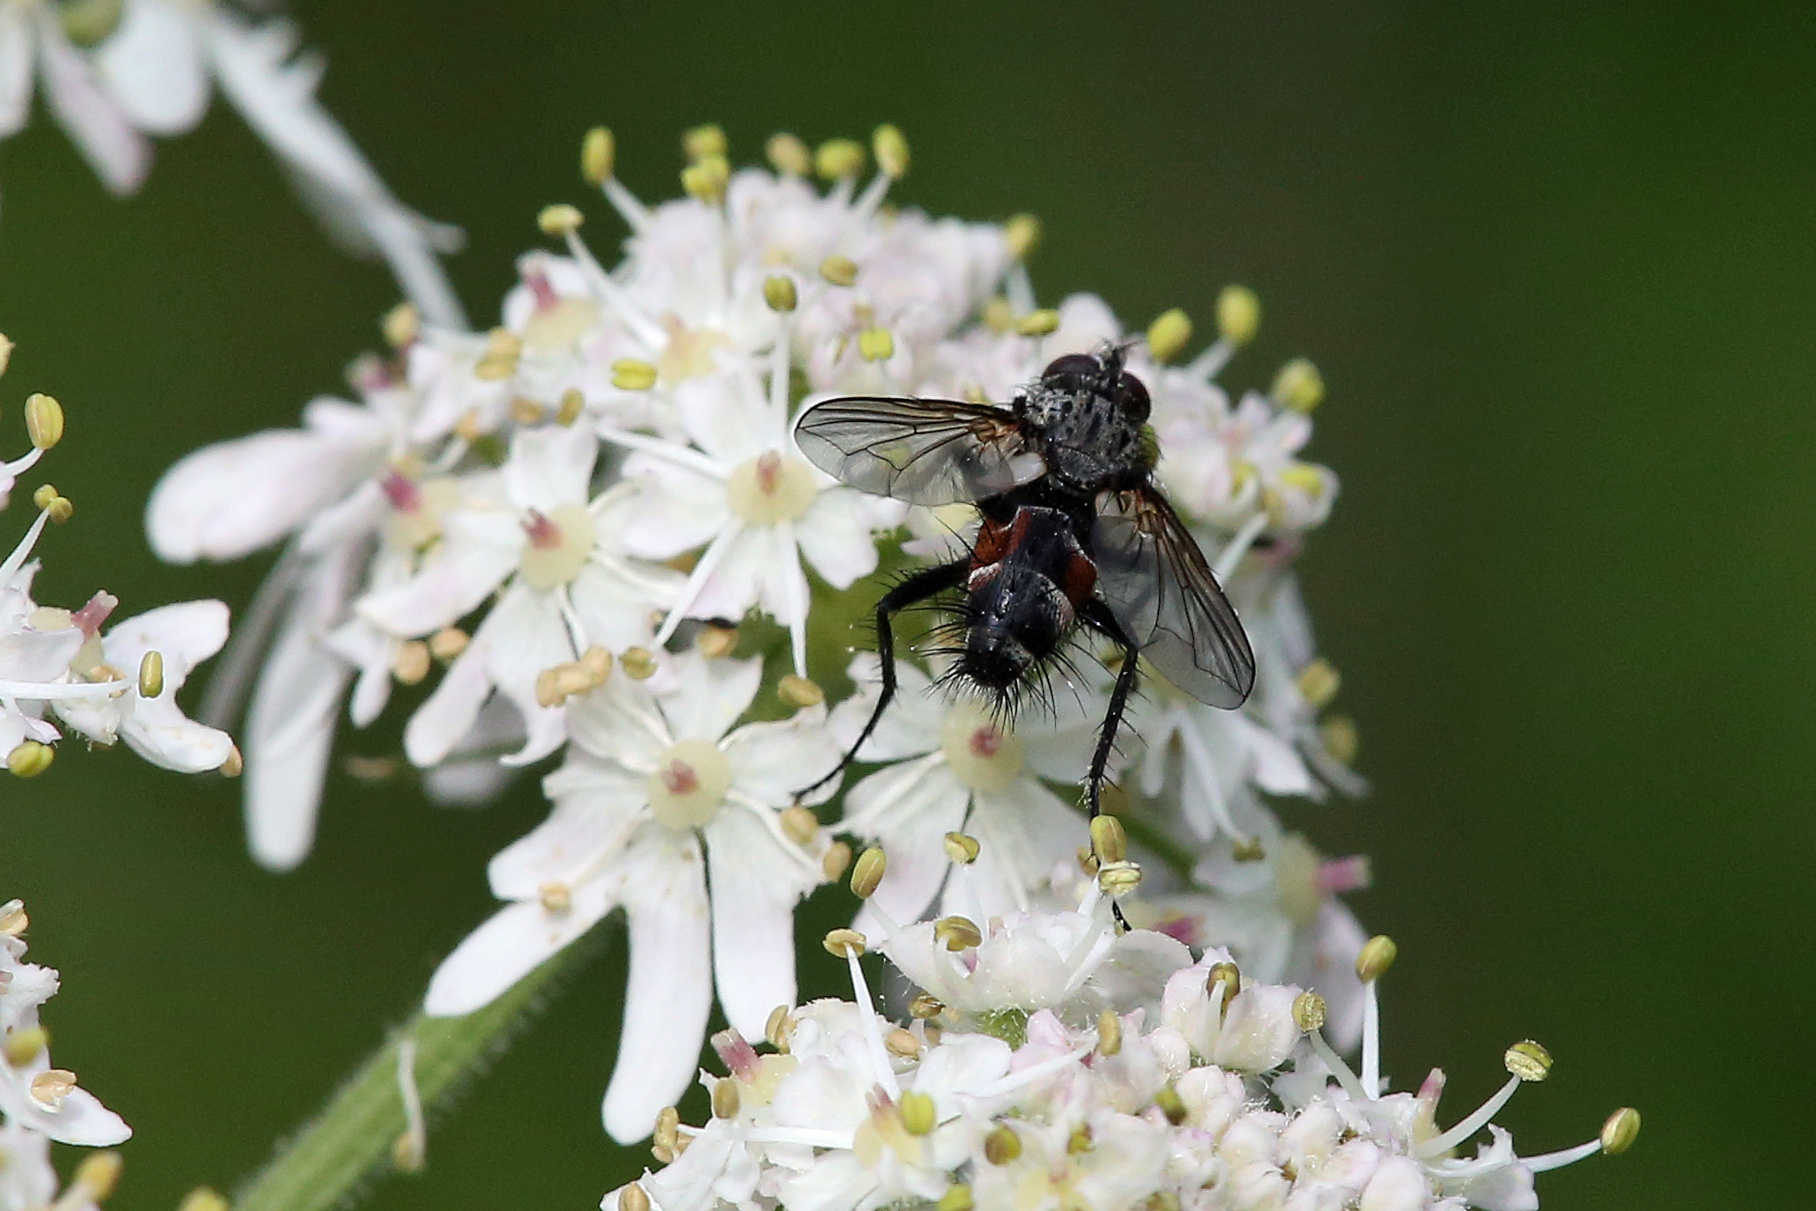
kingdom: Animalia
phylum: Arthropoda
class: Insecta
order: Diptera
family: Tachinidae
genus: Eriothrix
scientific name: Eriothrix rufomaculatus
